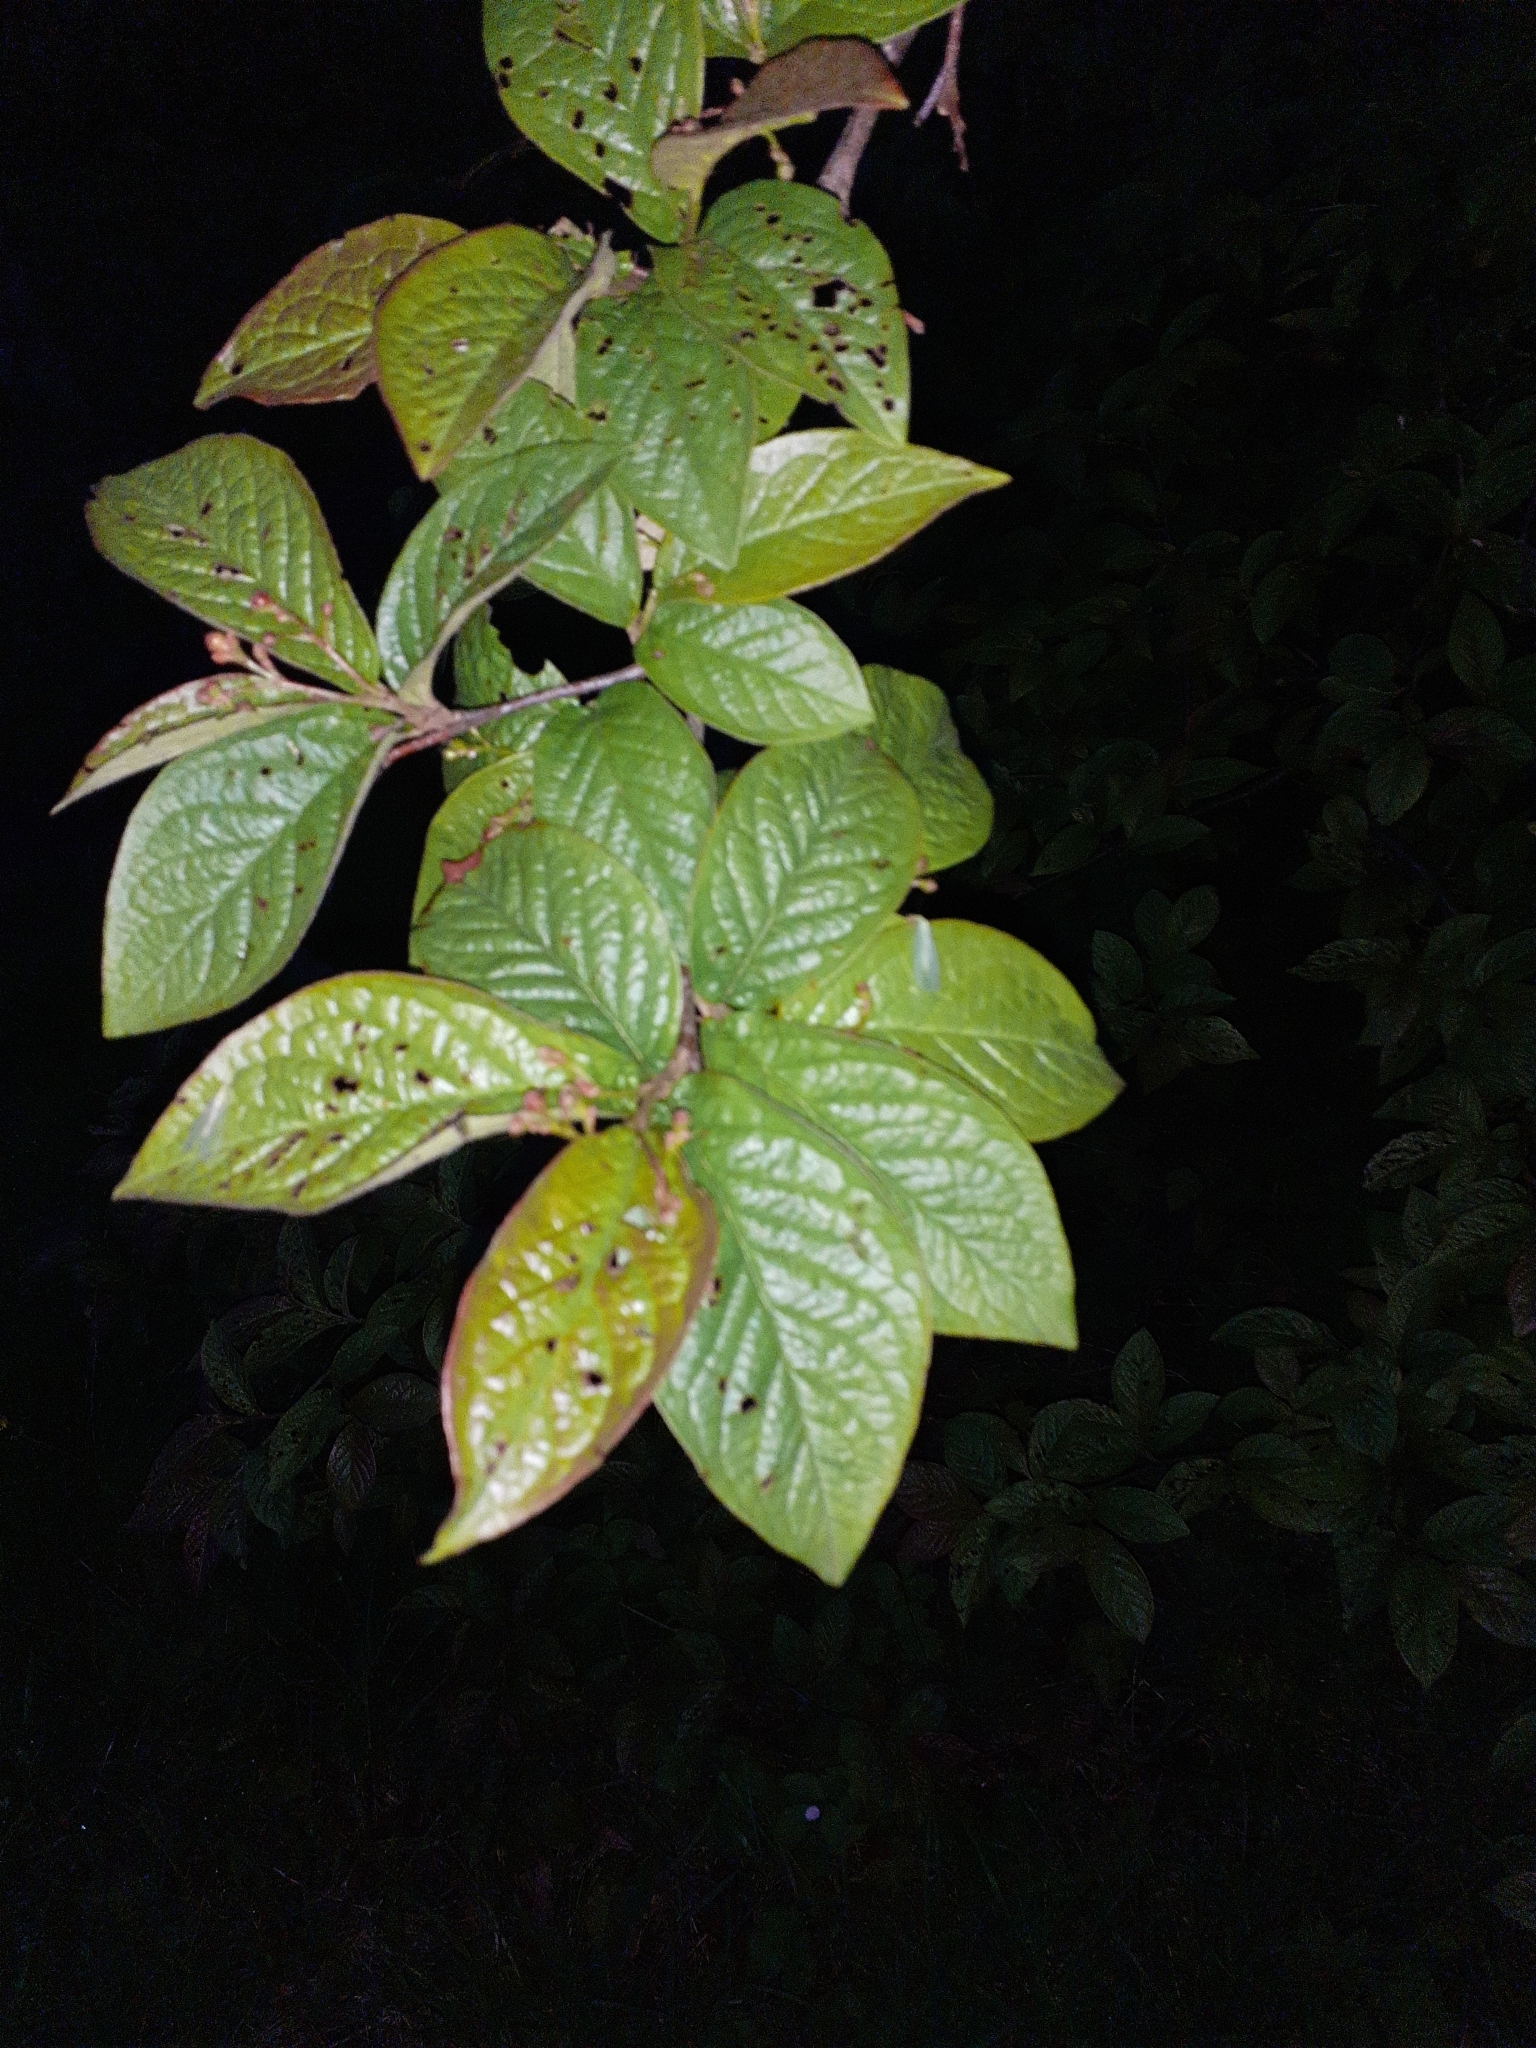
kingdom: Plantae
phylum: Tracheophyta
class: Magnoliopsida
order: Rosales
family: Rosaceae
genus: Cotoneaster
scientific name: Cotoneaster bullatus
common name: Hollyberry cotoneaster
